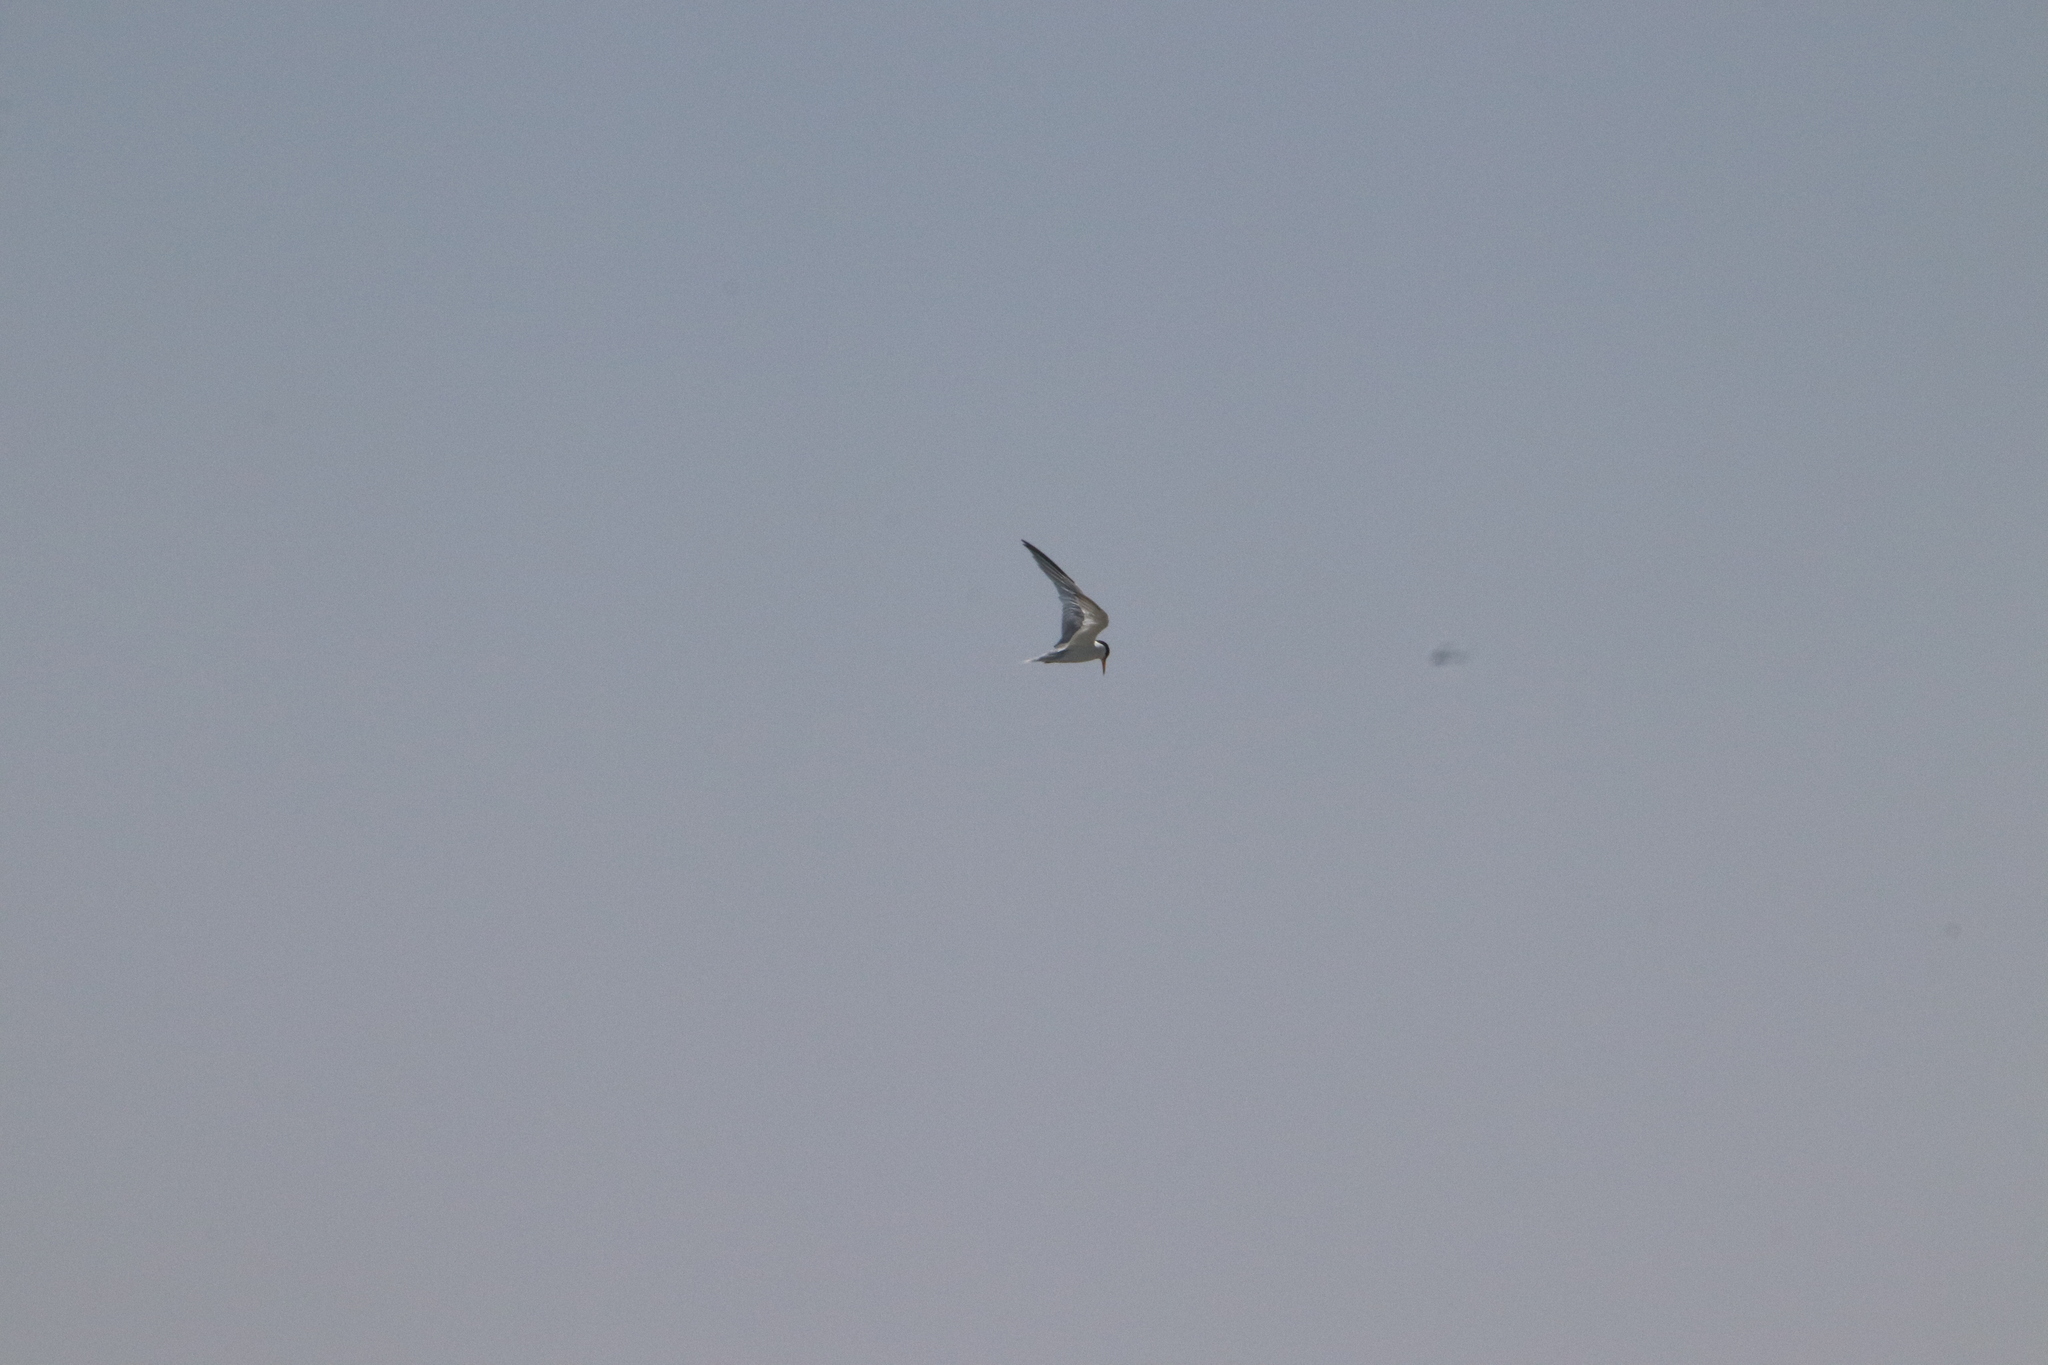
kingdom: Animalia
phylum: Chordata
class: Aves
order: Charadriiformes
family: Laridae
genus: Sternula
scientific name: Sternula antillarum
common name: Least tern
